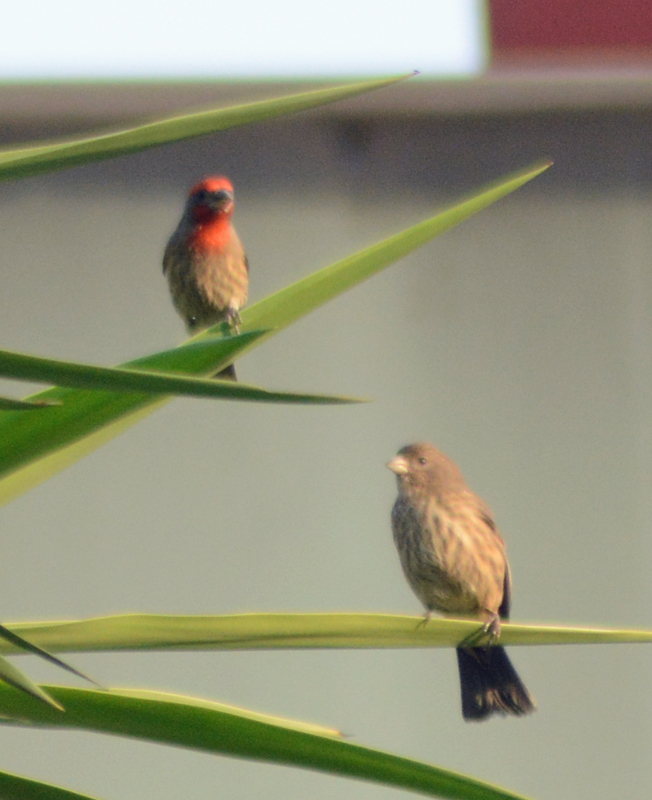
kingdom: Animalia
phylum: Chordata
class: Aves
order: Passeriformes
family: Fringillidae
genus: Haemorhous
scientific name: Haemorhous mexicanus
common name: House finch
